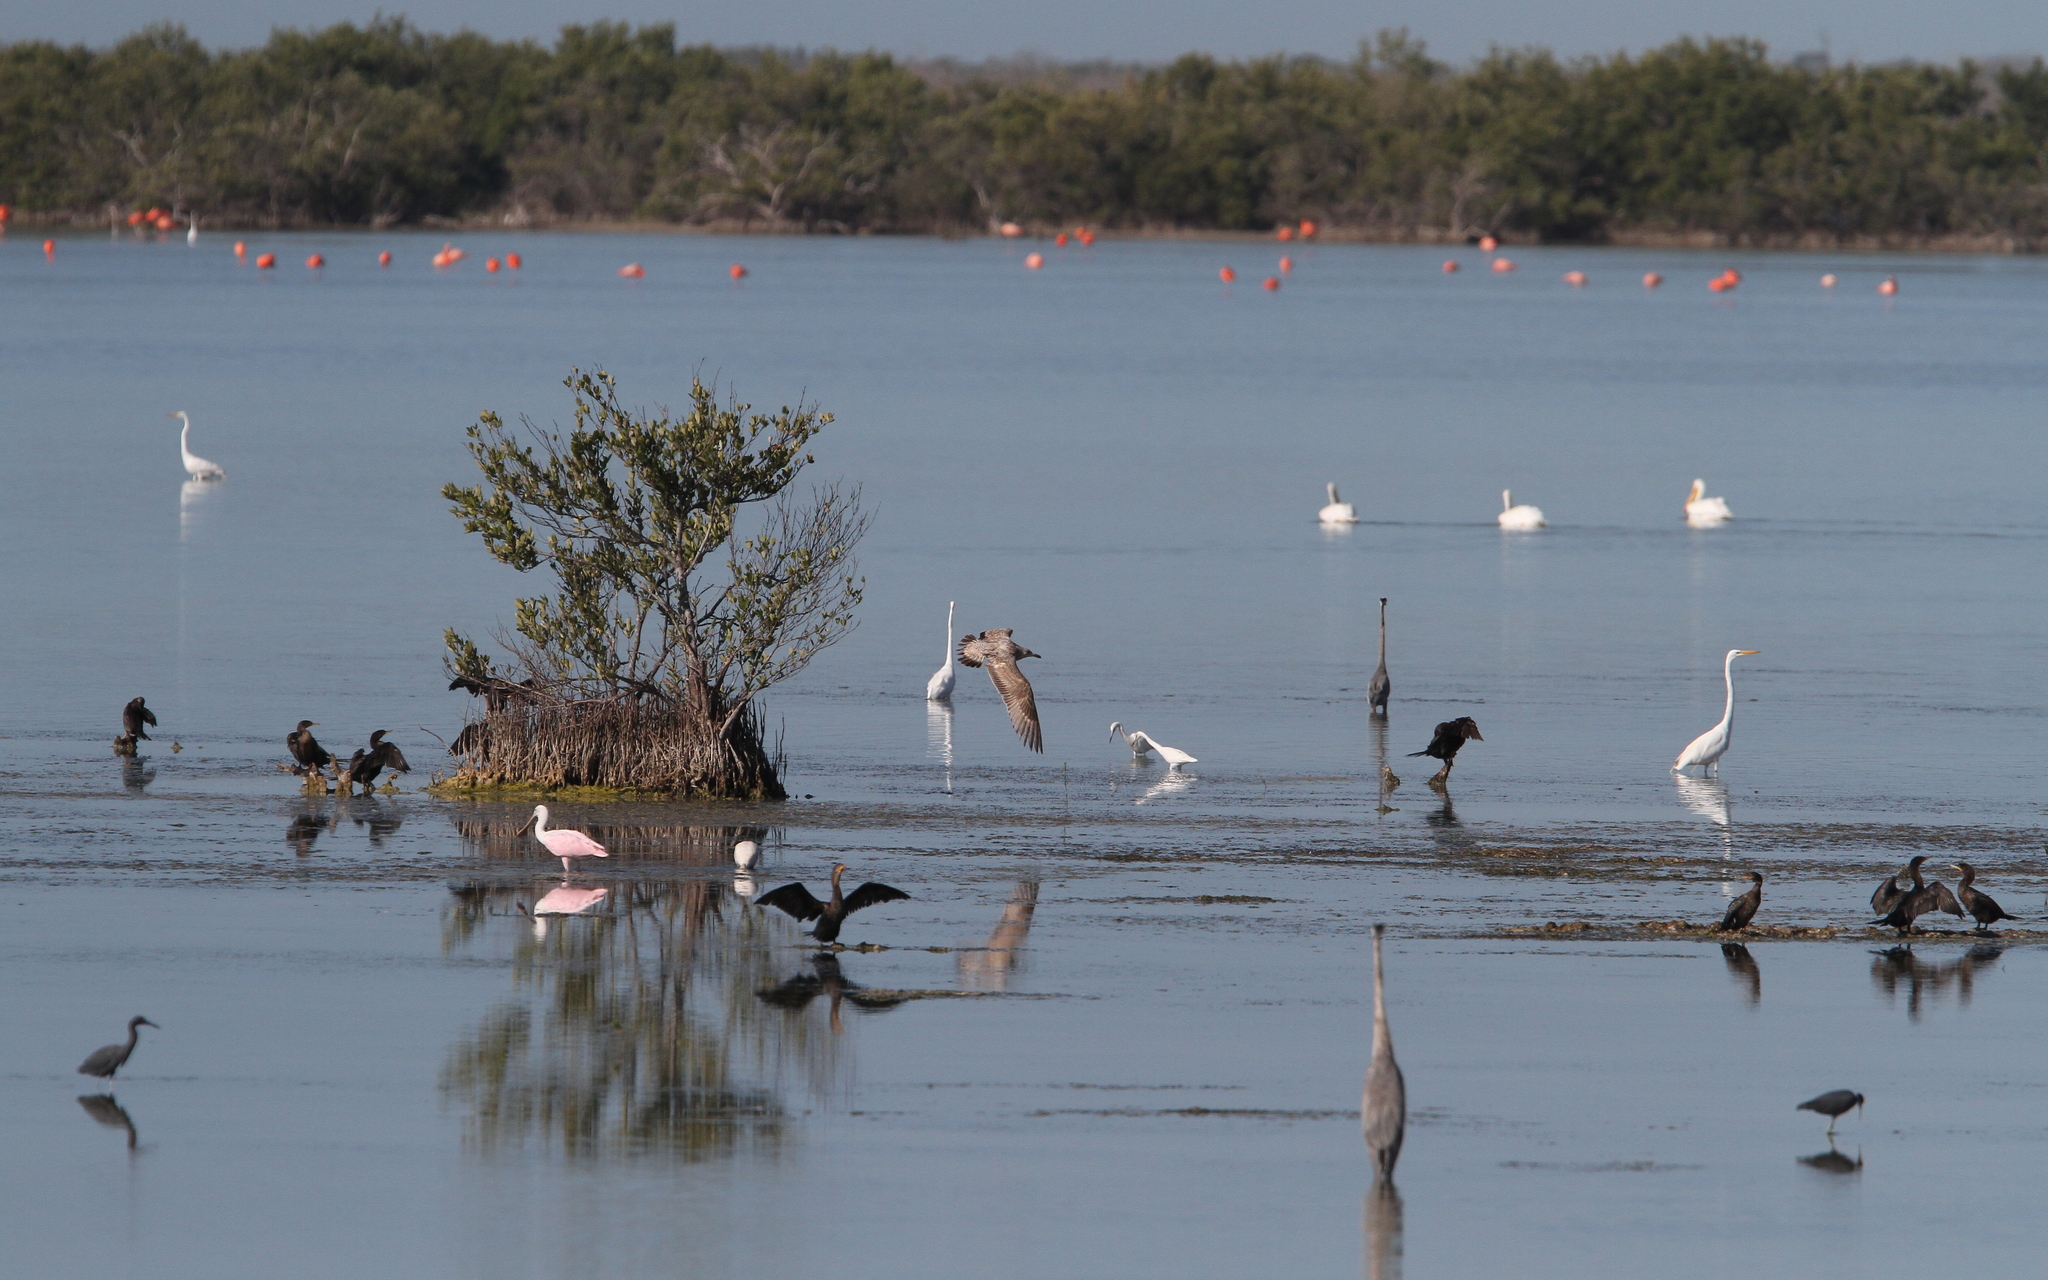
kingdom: Animalia
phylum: Chordata
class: Aves
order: Charadriiformes
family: Laridae
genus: Larus
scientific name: Larus smithsonianus
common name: American herring gull
